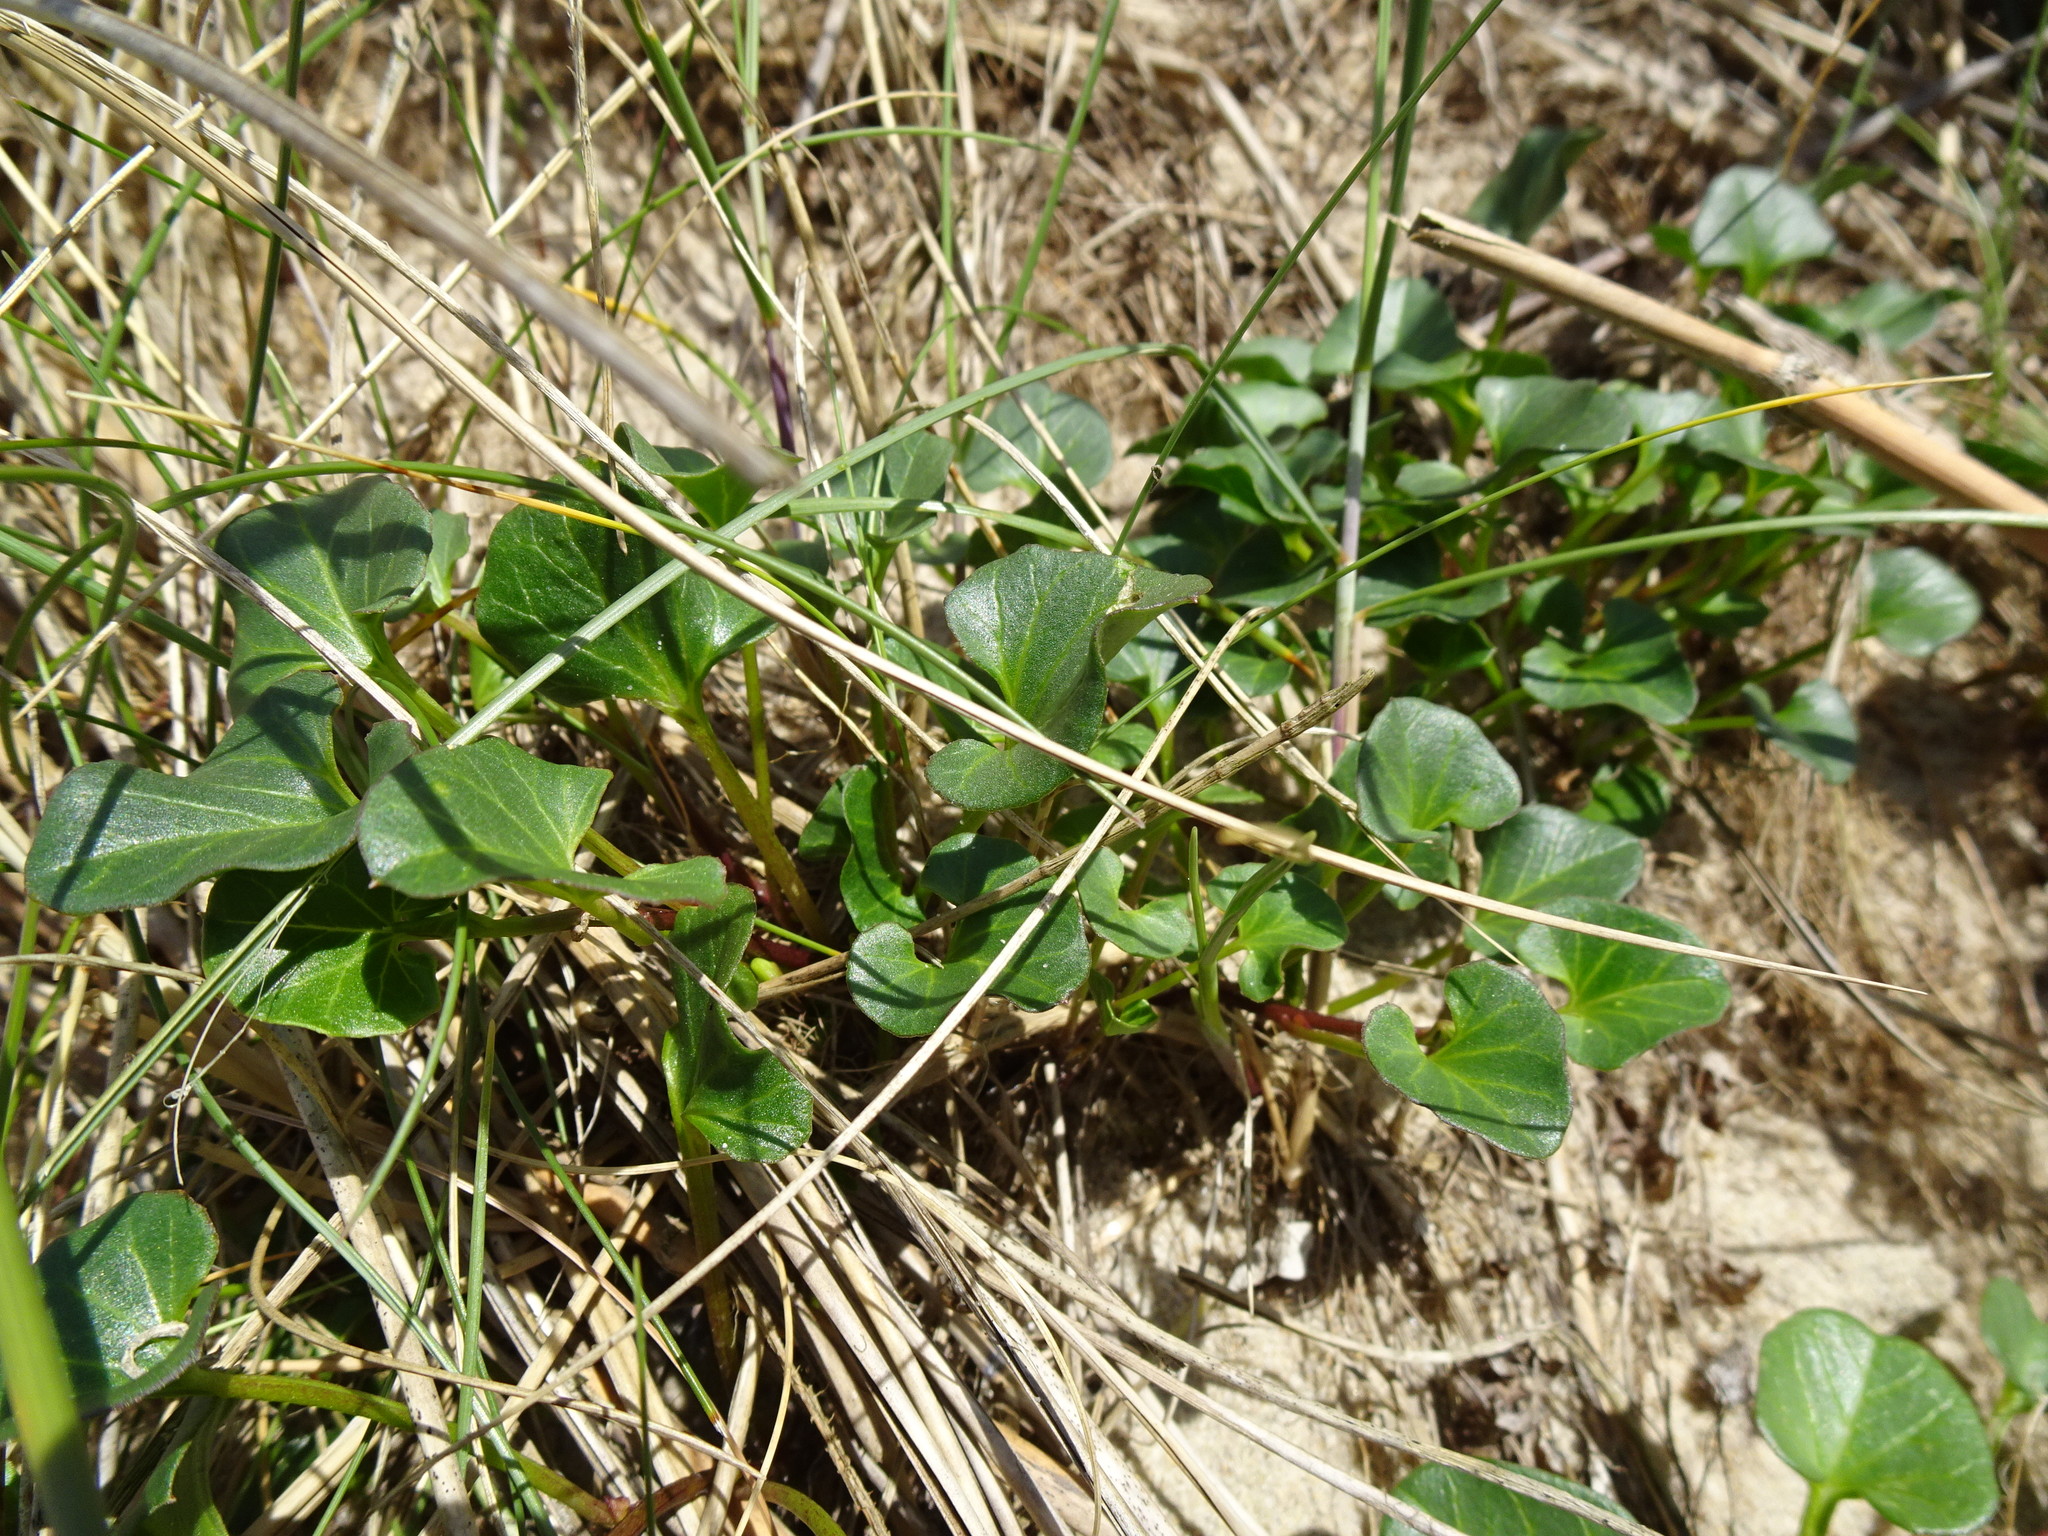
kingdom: Plantae
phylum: Tracheophyta
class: Magnoliopsida
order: Solanales
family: Convolvulaceae
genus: Calystegia
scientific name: Calystegia soldanella
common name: Sea bindweed
